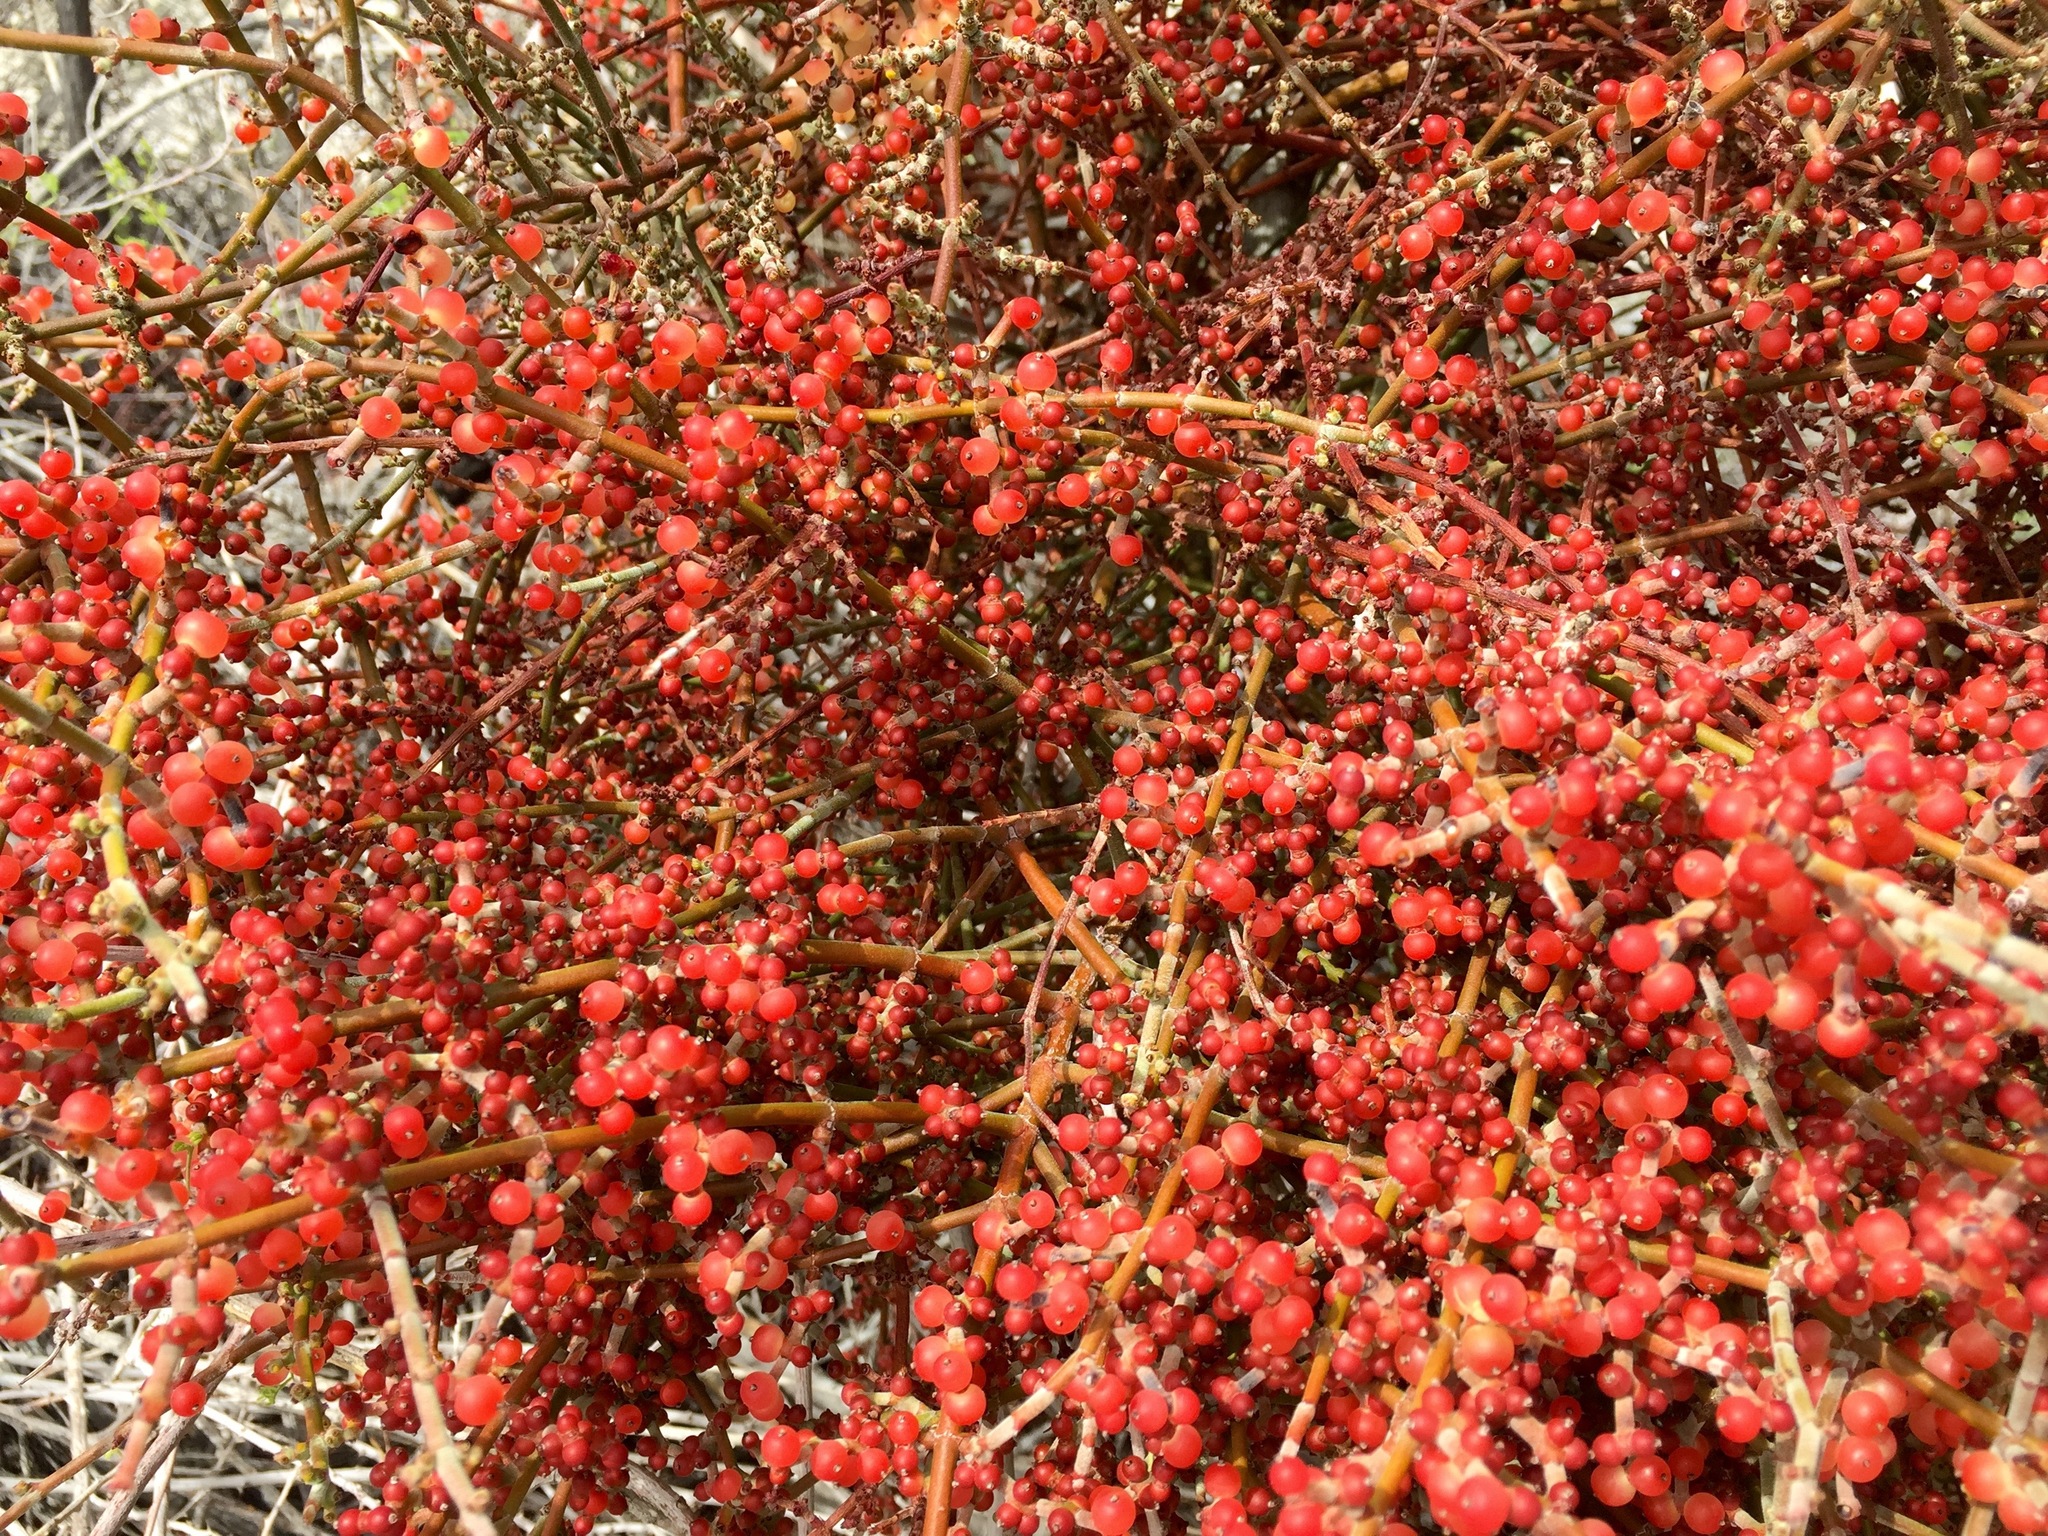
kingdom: Plantae
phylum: Tracheophyta
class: Magnoliopsida
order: Santalales
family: Viscaceae
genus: Phoradendron
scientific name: Phoradendron californicum
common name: Acacia mistletoe
